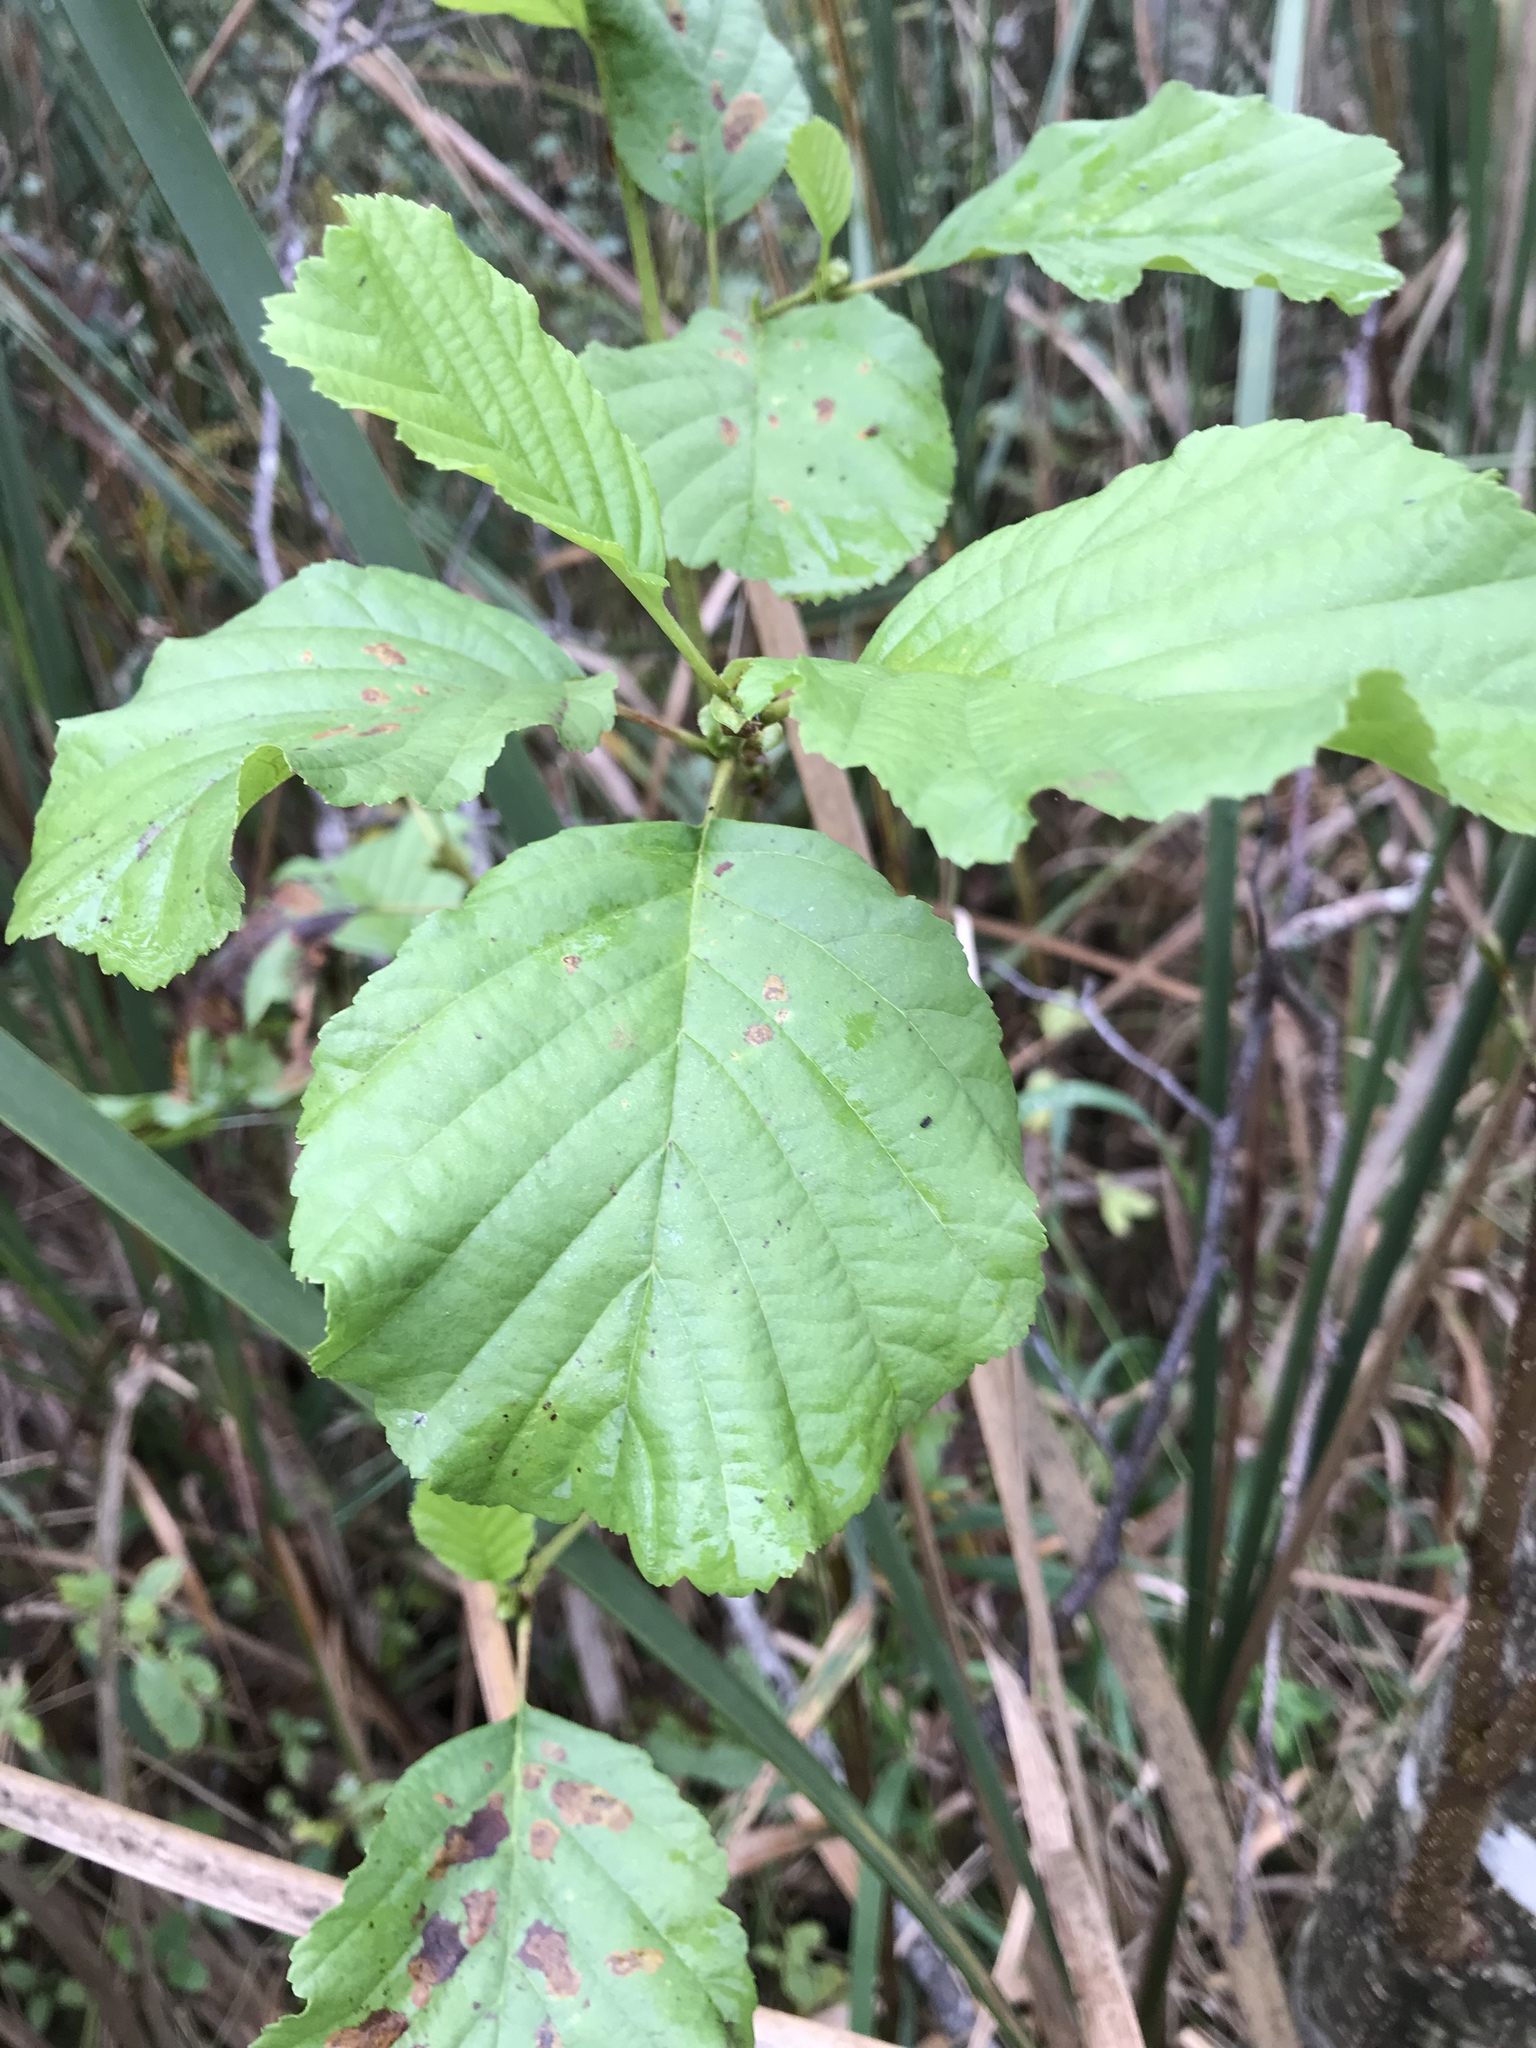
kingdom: Plantae
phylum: Tracheophyta
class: Magnoliopsida
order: Fagales
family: Betulaceae
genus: Alnus
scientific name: Alnus glutinosa
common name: Black alder
